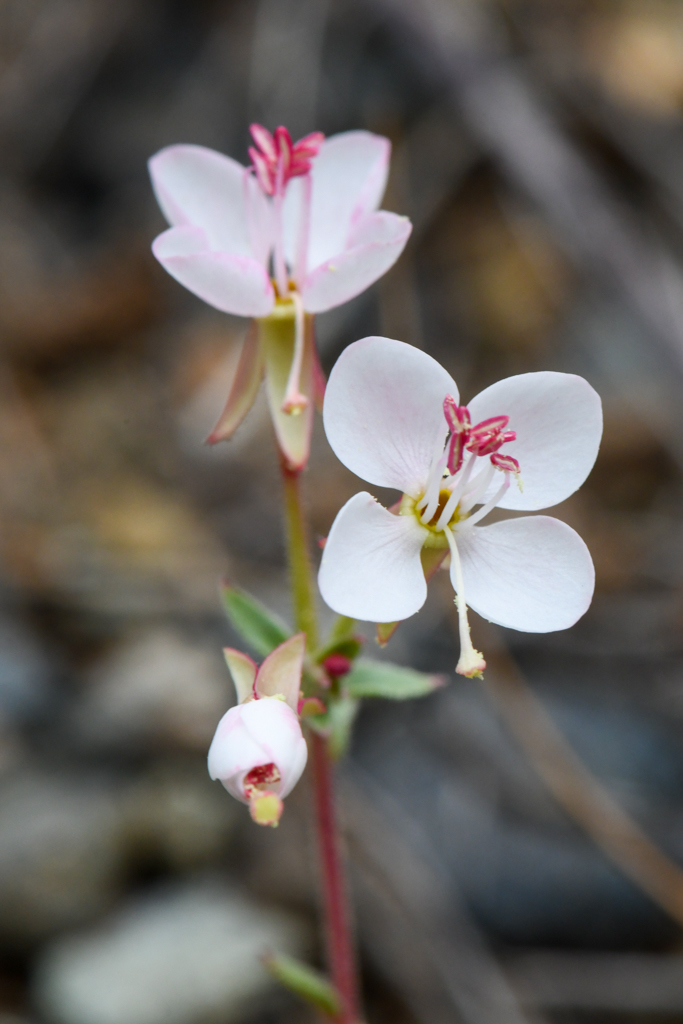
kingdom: Plantae
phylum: Tracheophyta
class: Magnoliopsida
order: Myrtales
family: Onagraceae
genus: Eremothera
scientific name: Eremothera boothii
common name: Booth's evening primrose
